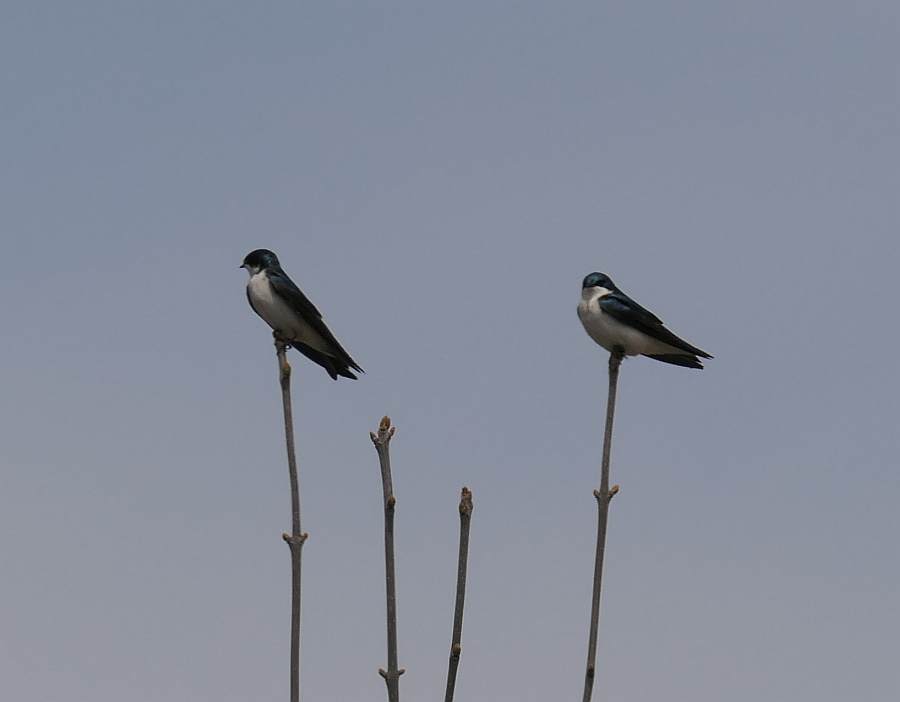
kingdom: Animalia
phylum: Chordata
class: Aves
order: Passeriformes
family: Hirundinidae
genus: Tachycineta
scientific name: Tachycineta bicolor
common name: Tree swallow
